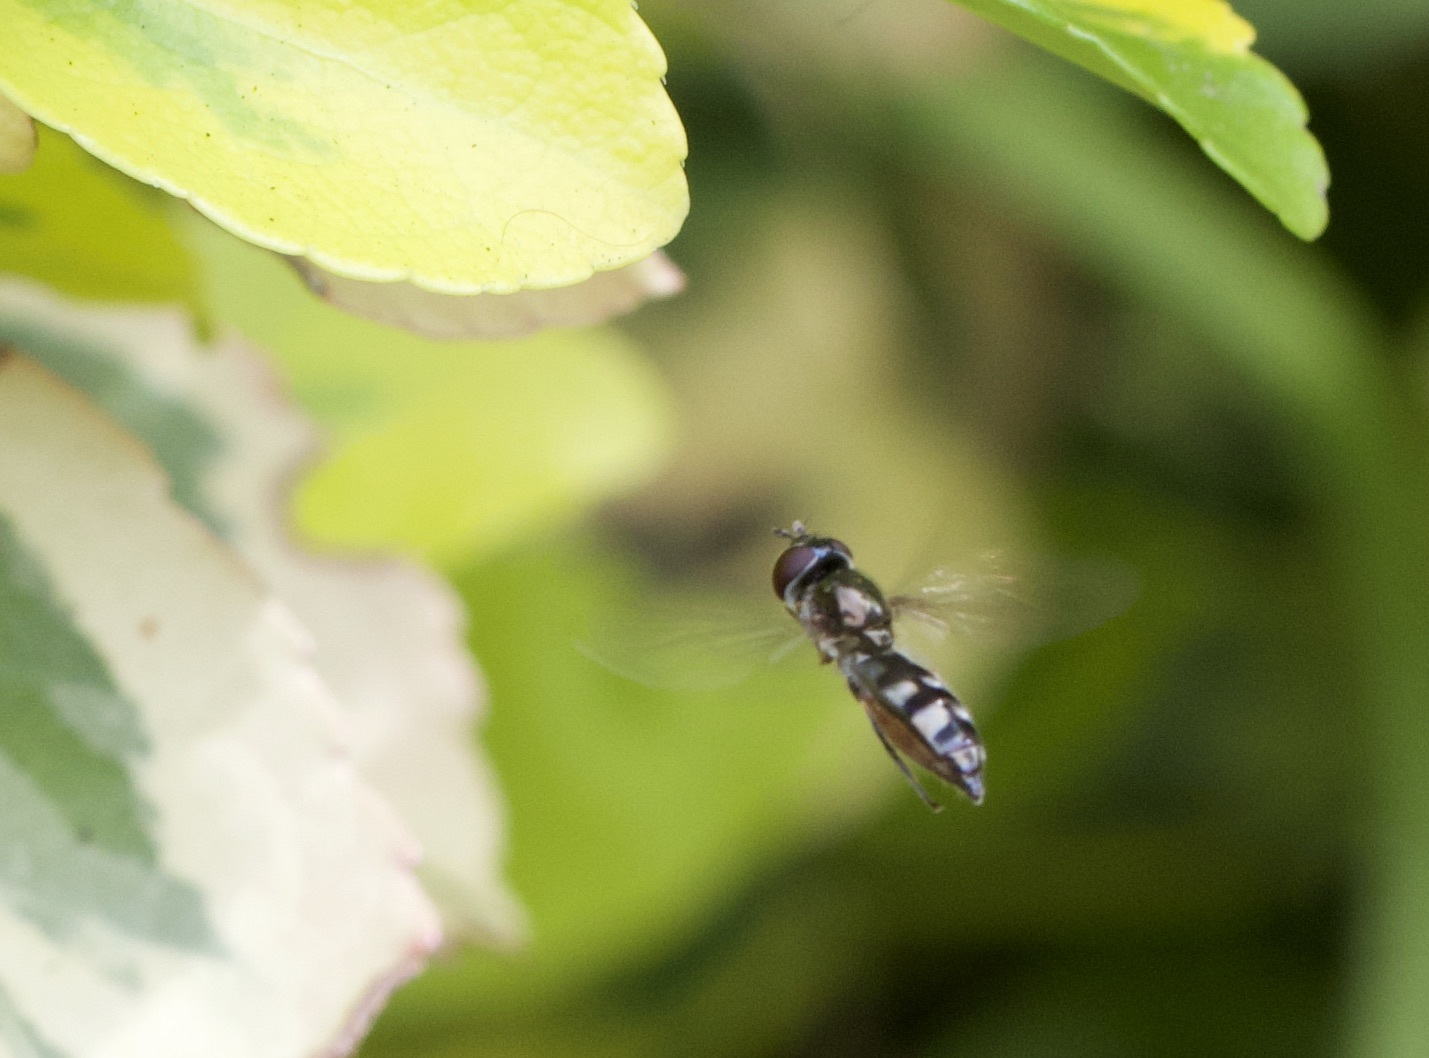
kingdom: Animalia
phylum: Arthropoda
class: Insecta
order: Diptera
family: Syrphidae
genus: Platycheirus
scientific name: Platycheirus albimanus
